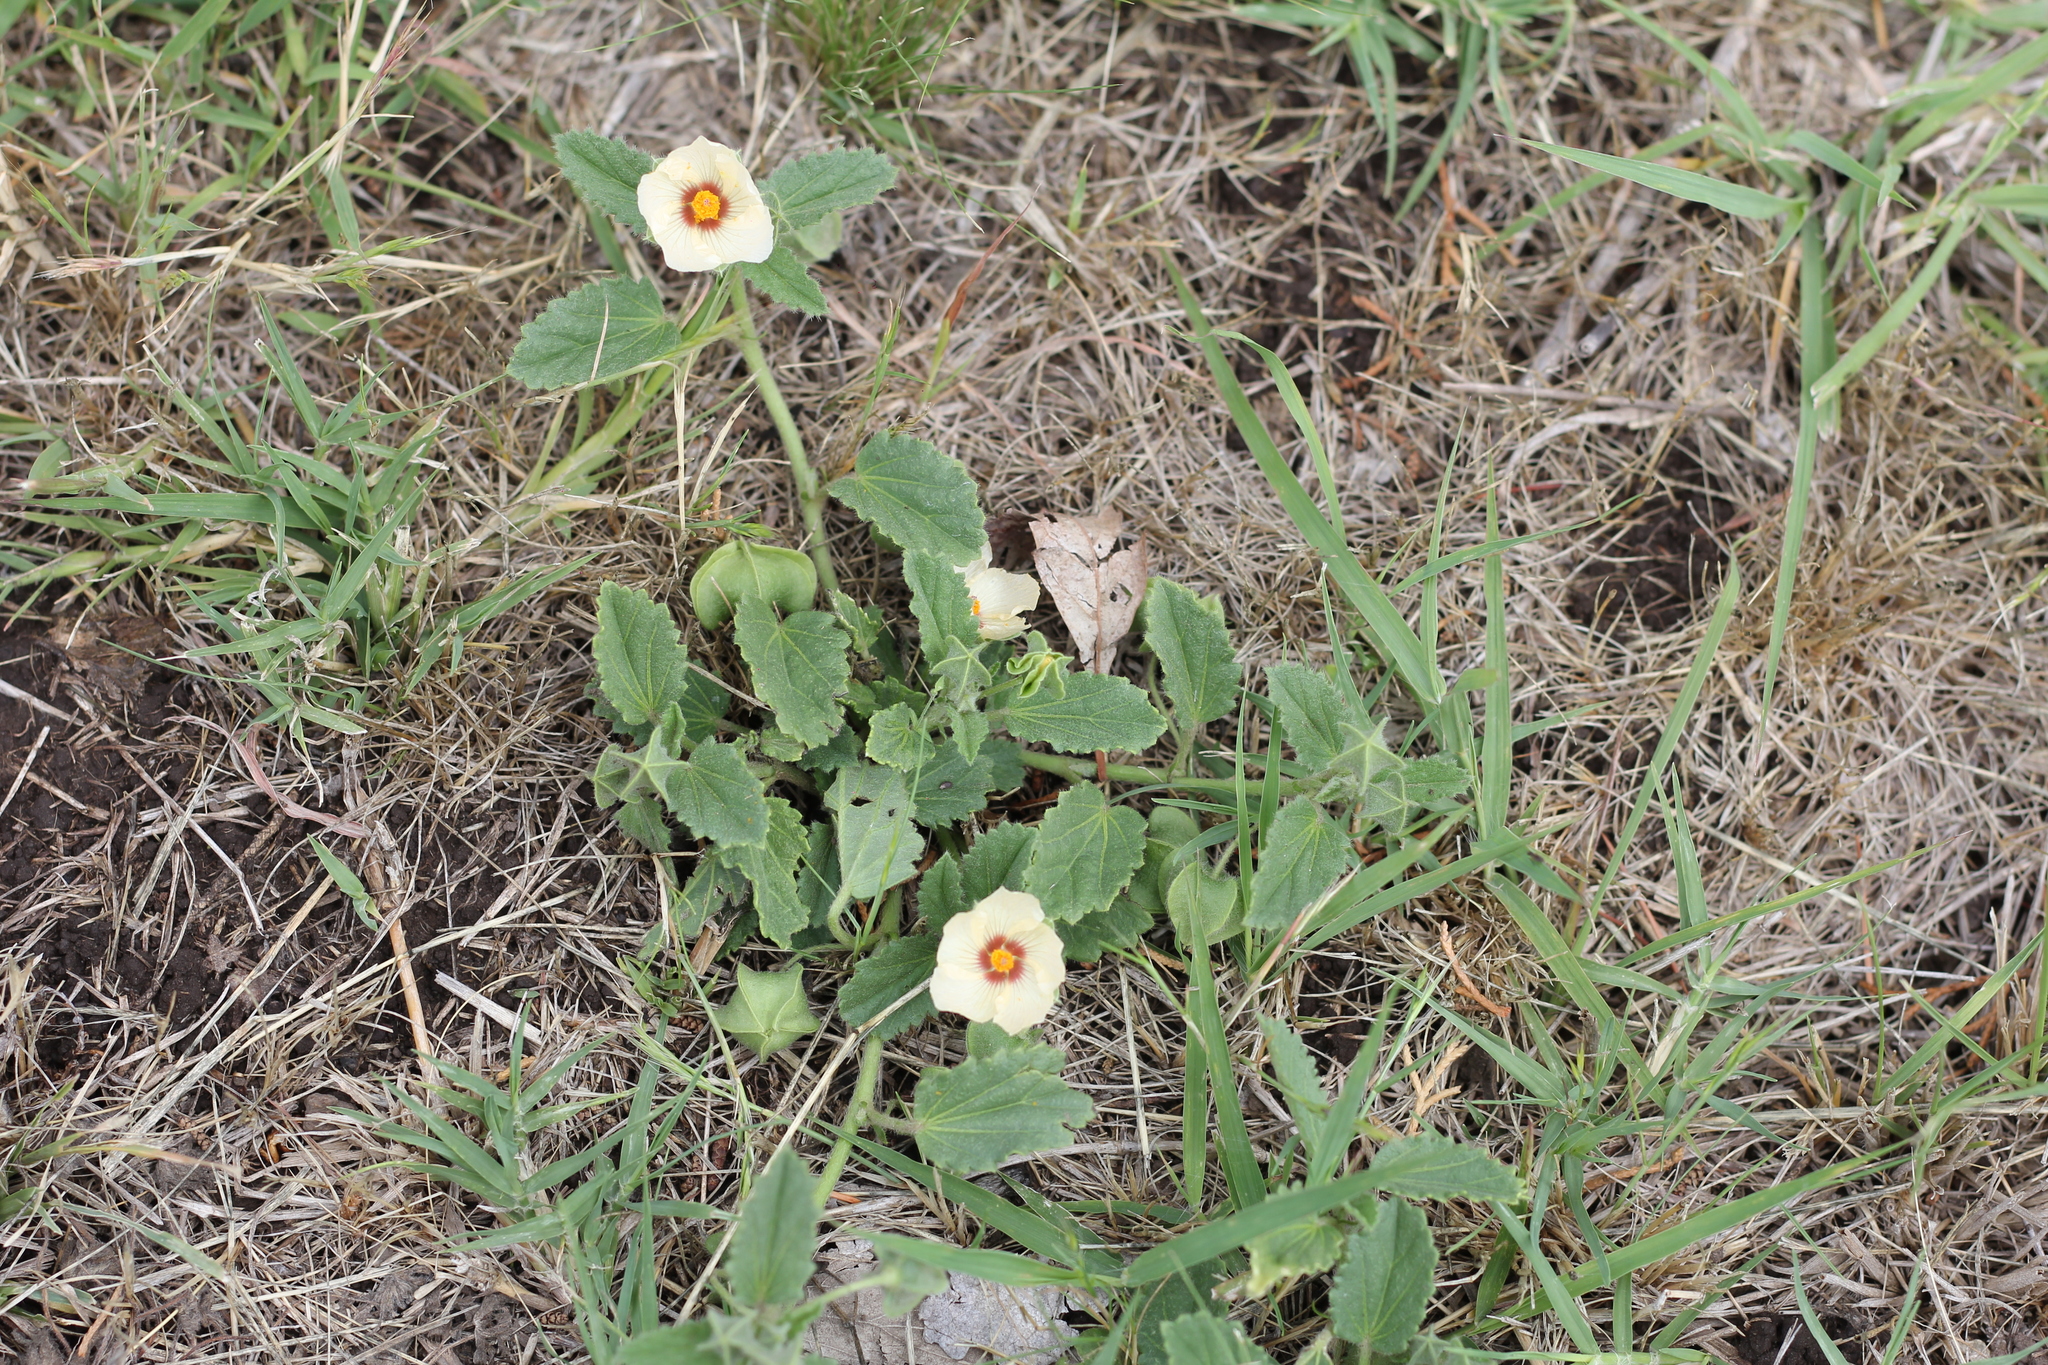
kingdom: Plantae
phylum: Tracheophyta
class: Magnoliopsida
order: Malvales
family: Malvaceae
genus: Rhynchosida
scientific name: Rhynchosida physocalyx
